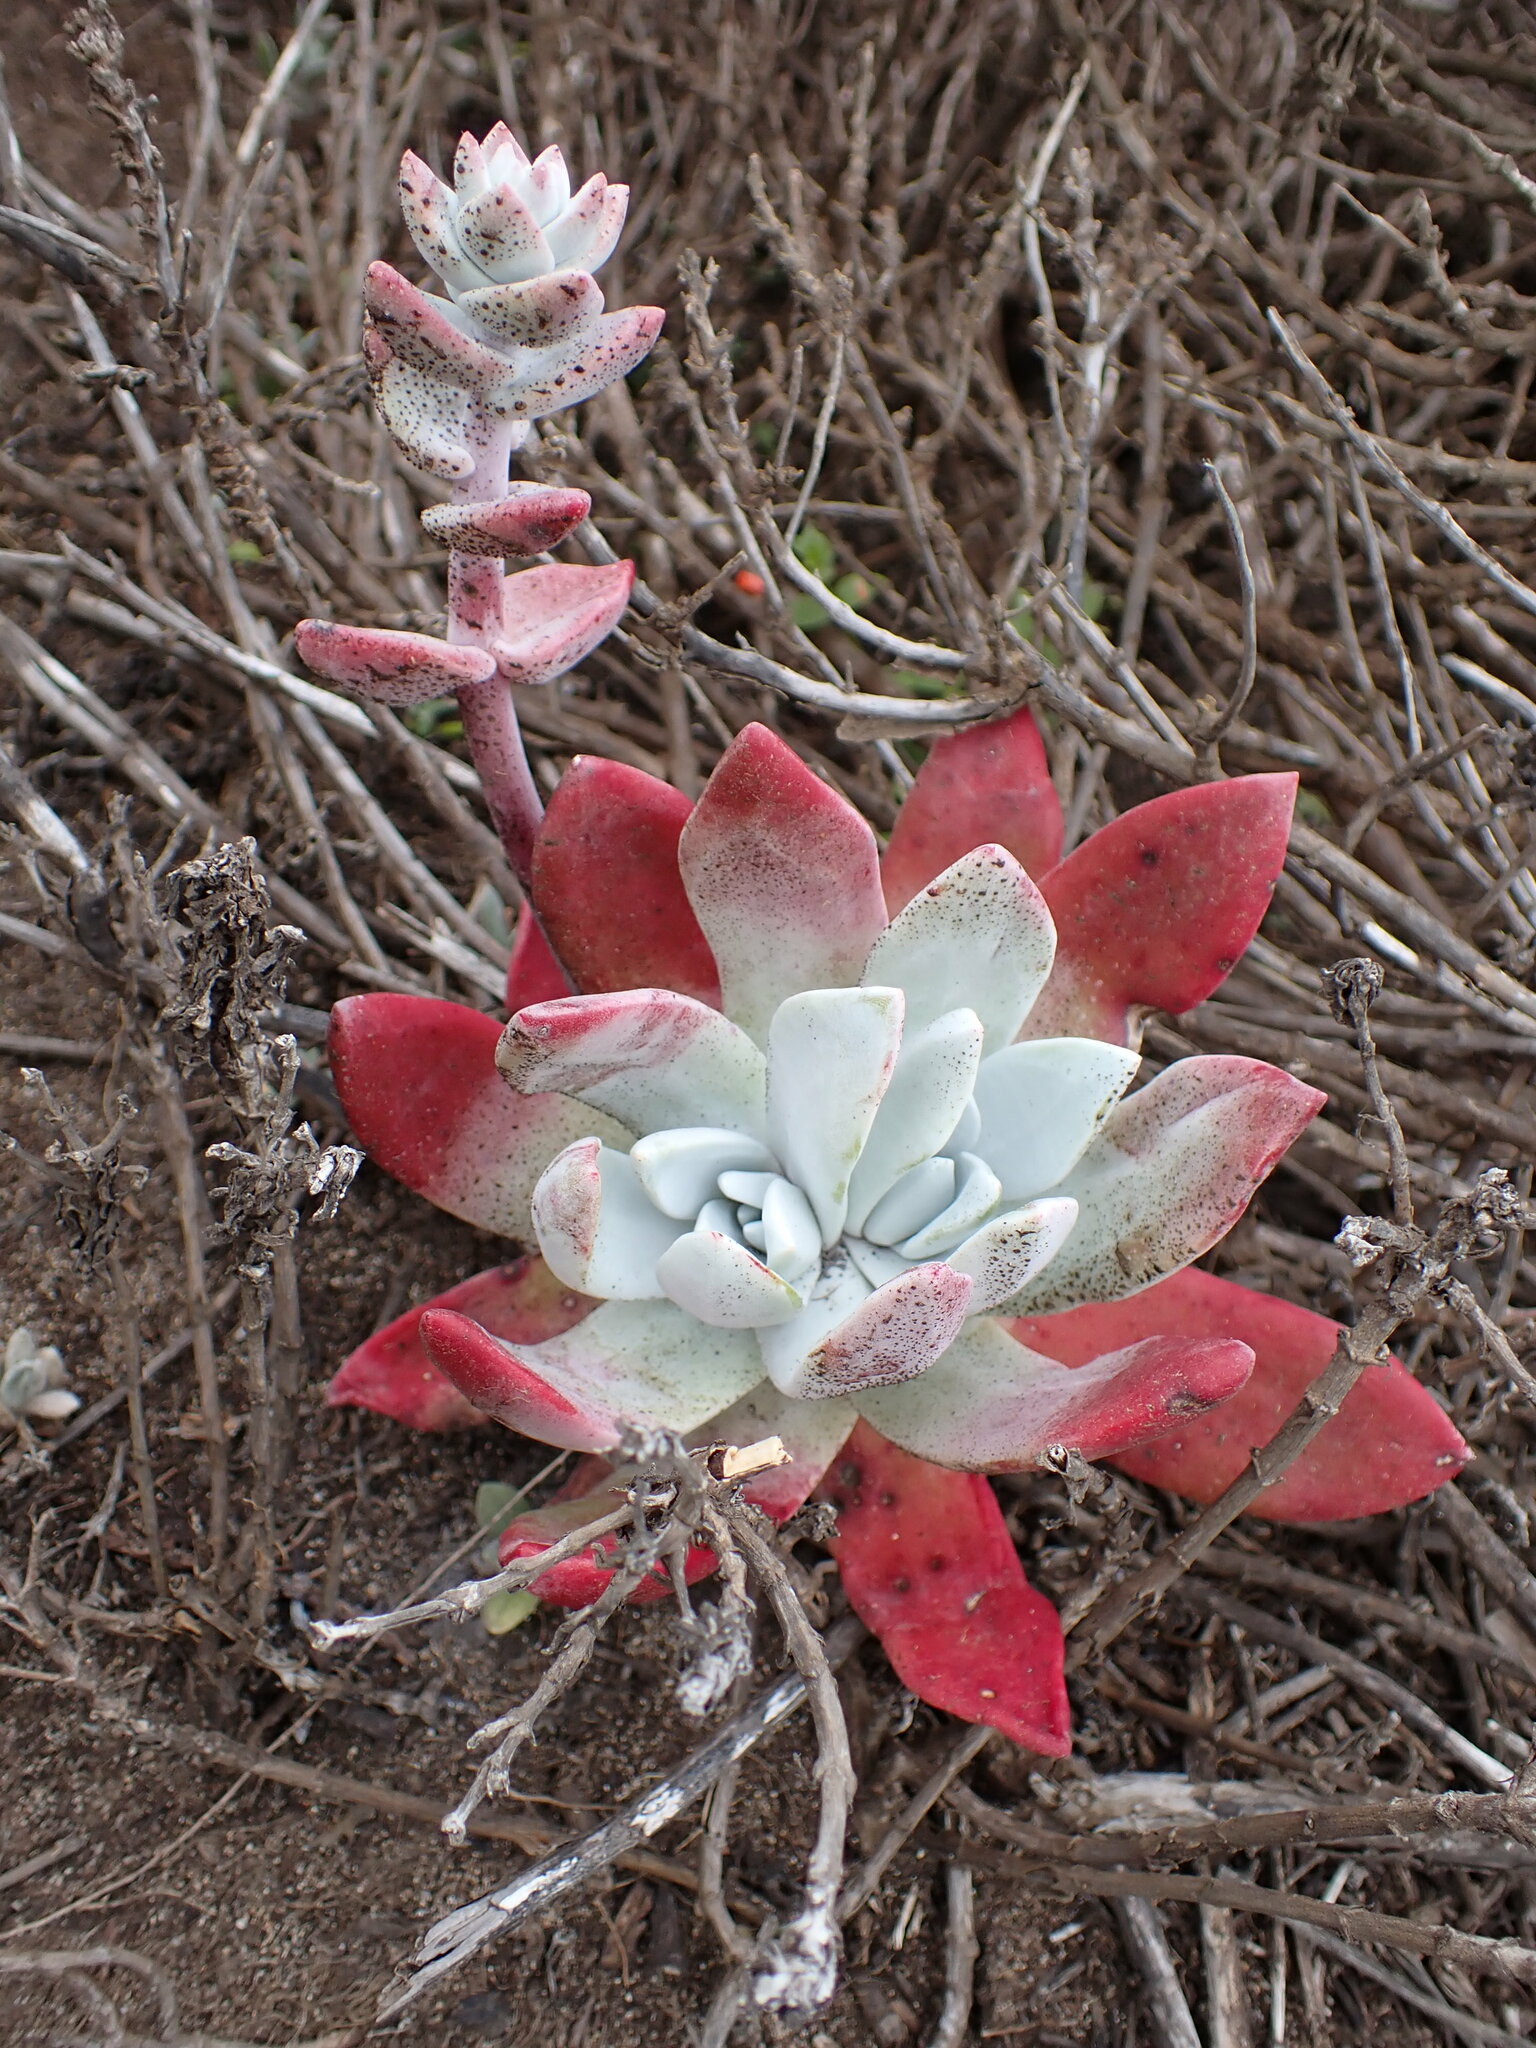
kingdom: Plantae
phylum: Tracheophyta
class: Magnoliopsida
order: Saxifragales
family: Crassulaceae
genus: Dudleya
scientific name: Dudleya farinosa
